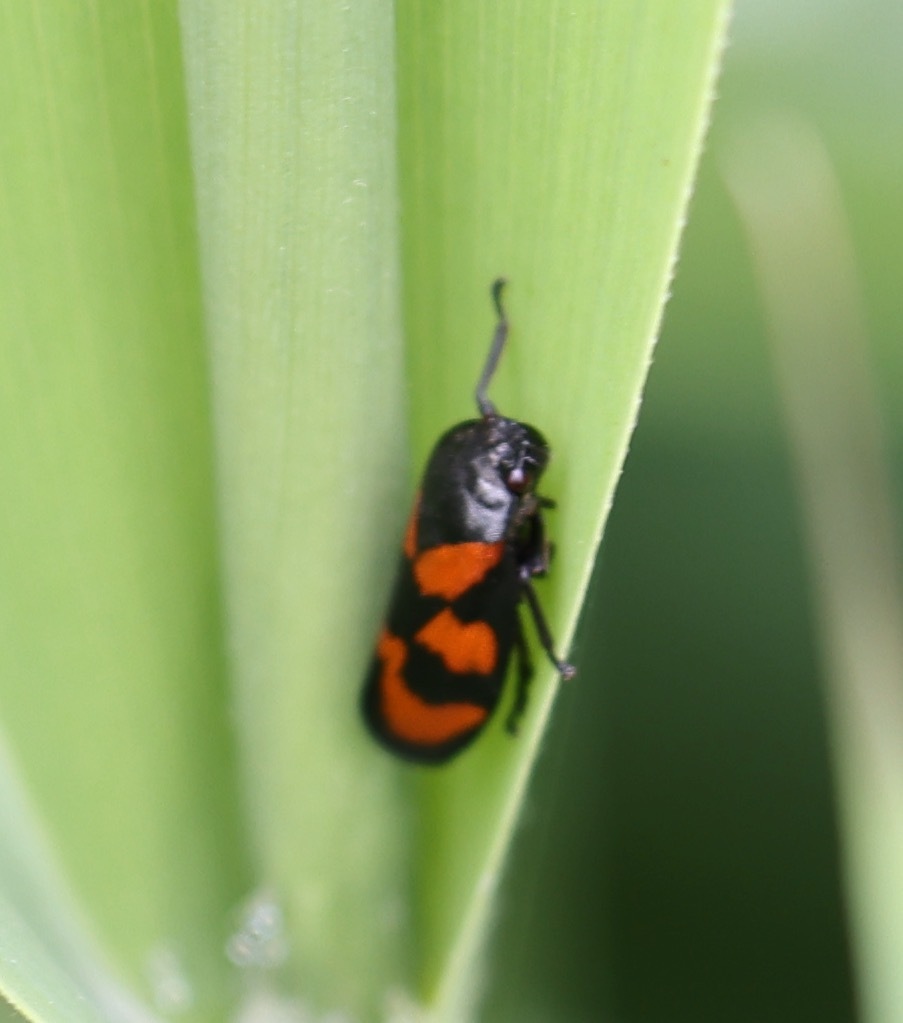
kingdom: Animalia
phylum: Arthropoda
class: Insecta
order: Hemiptera
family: Cercopidae
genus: Cercopis
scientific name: Cercopis vulnerata
